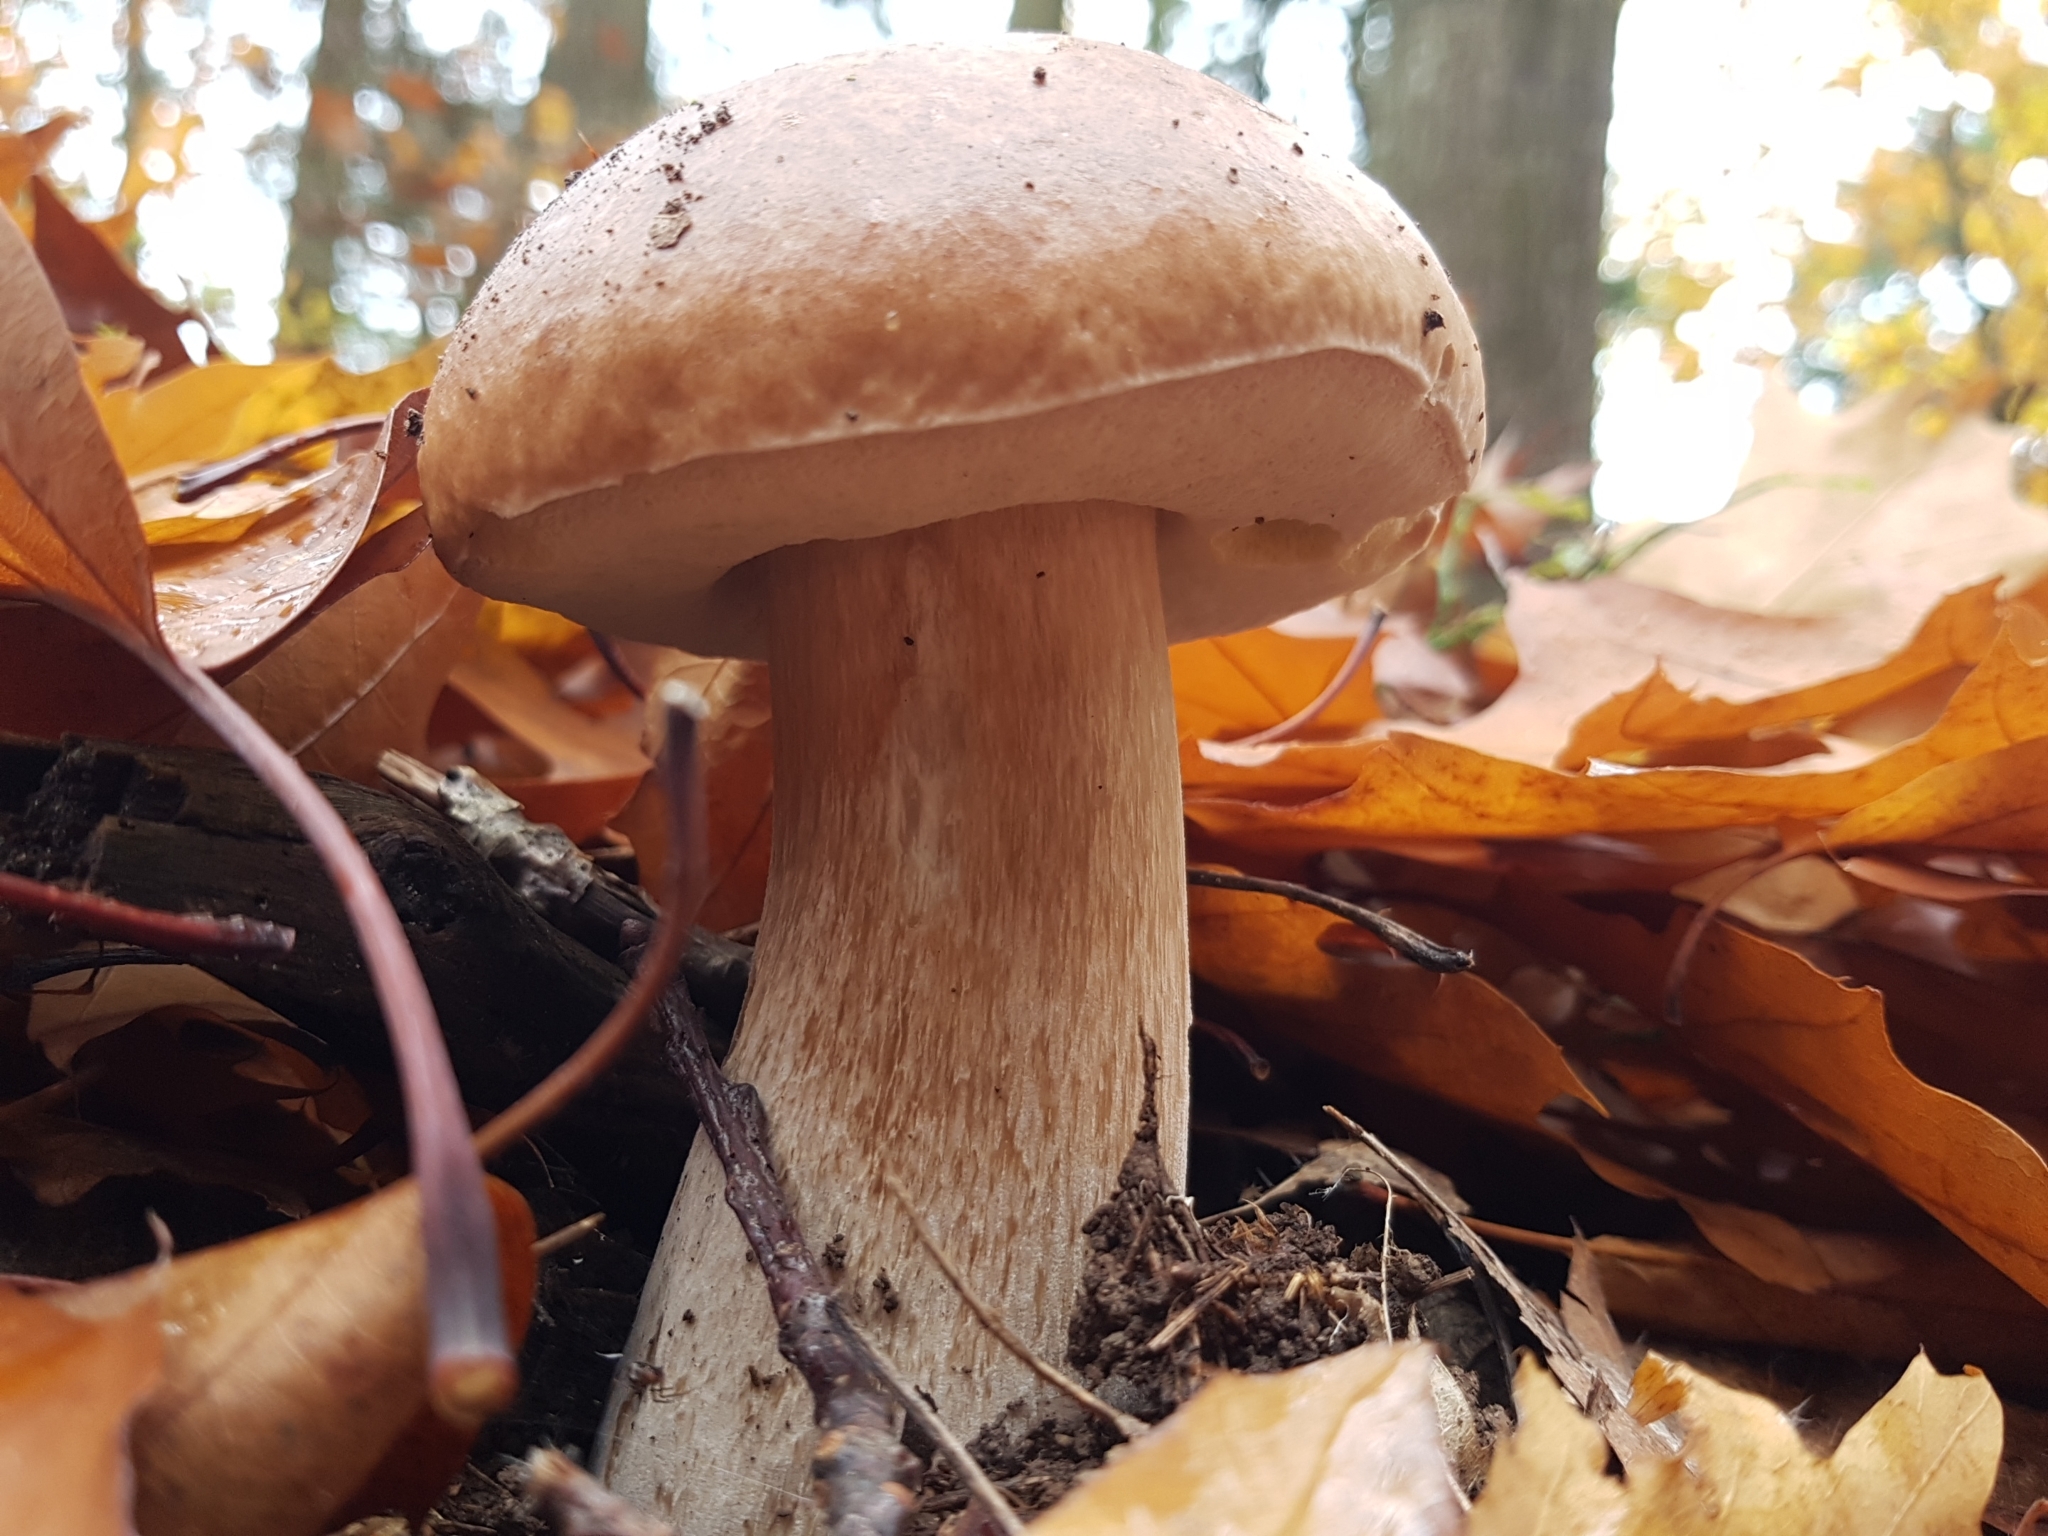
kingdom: Fungi
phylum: Basidiomycota
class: Agaricomycetes
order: Boletales
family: Boletaceae
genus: Boletus
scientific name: Boletus edulis
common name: Cep
